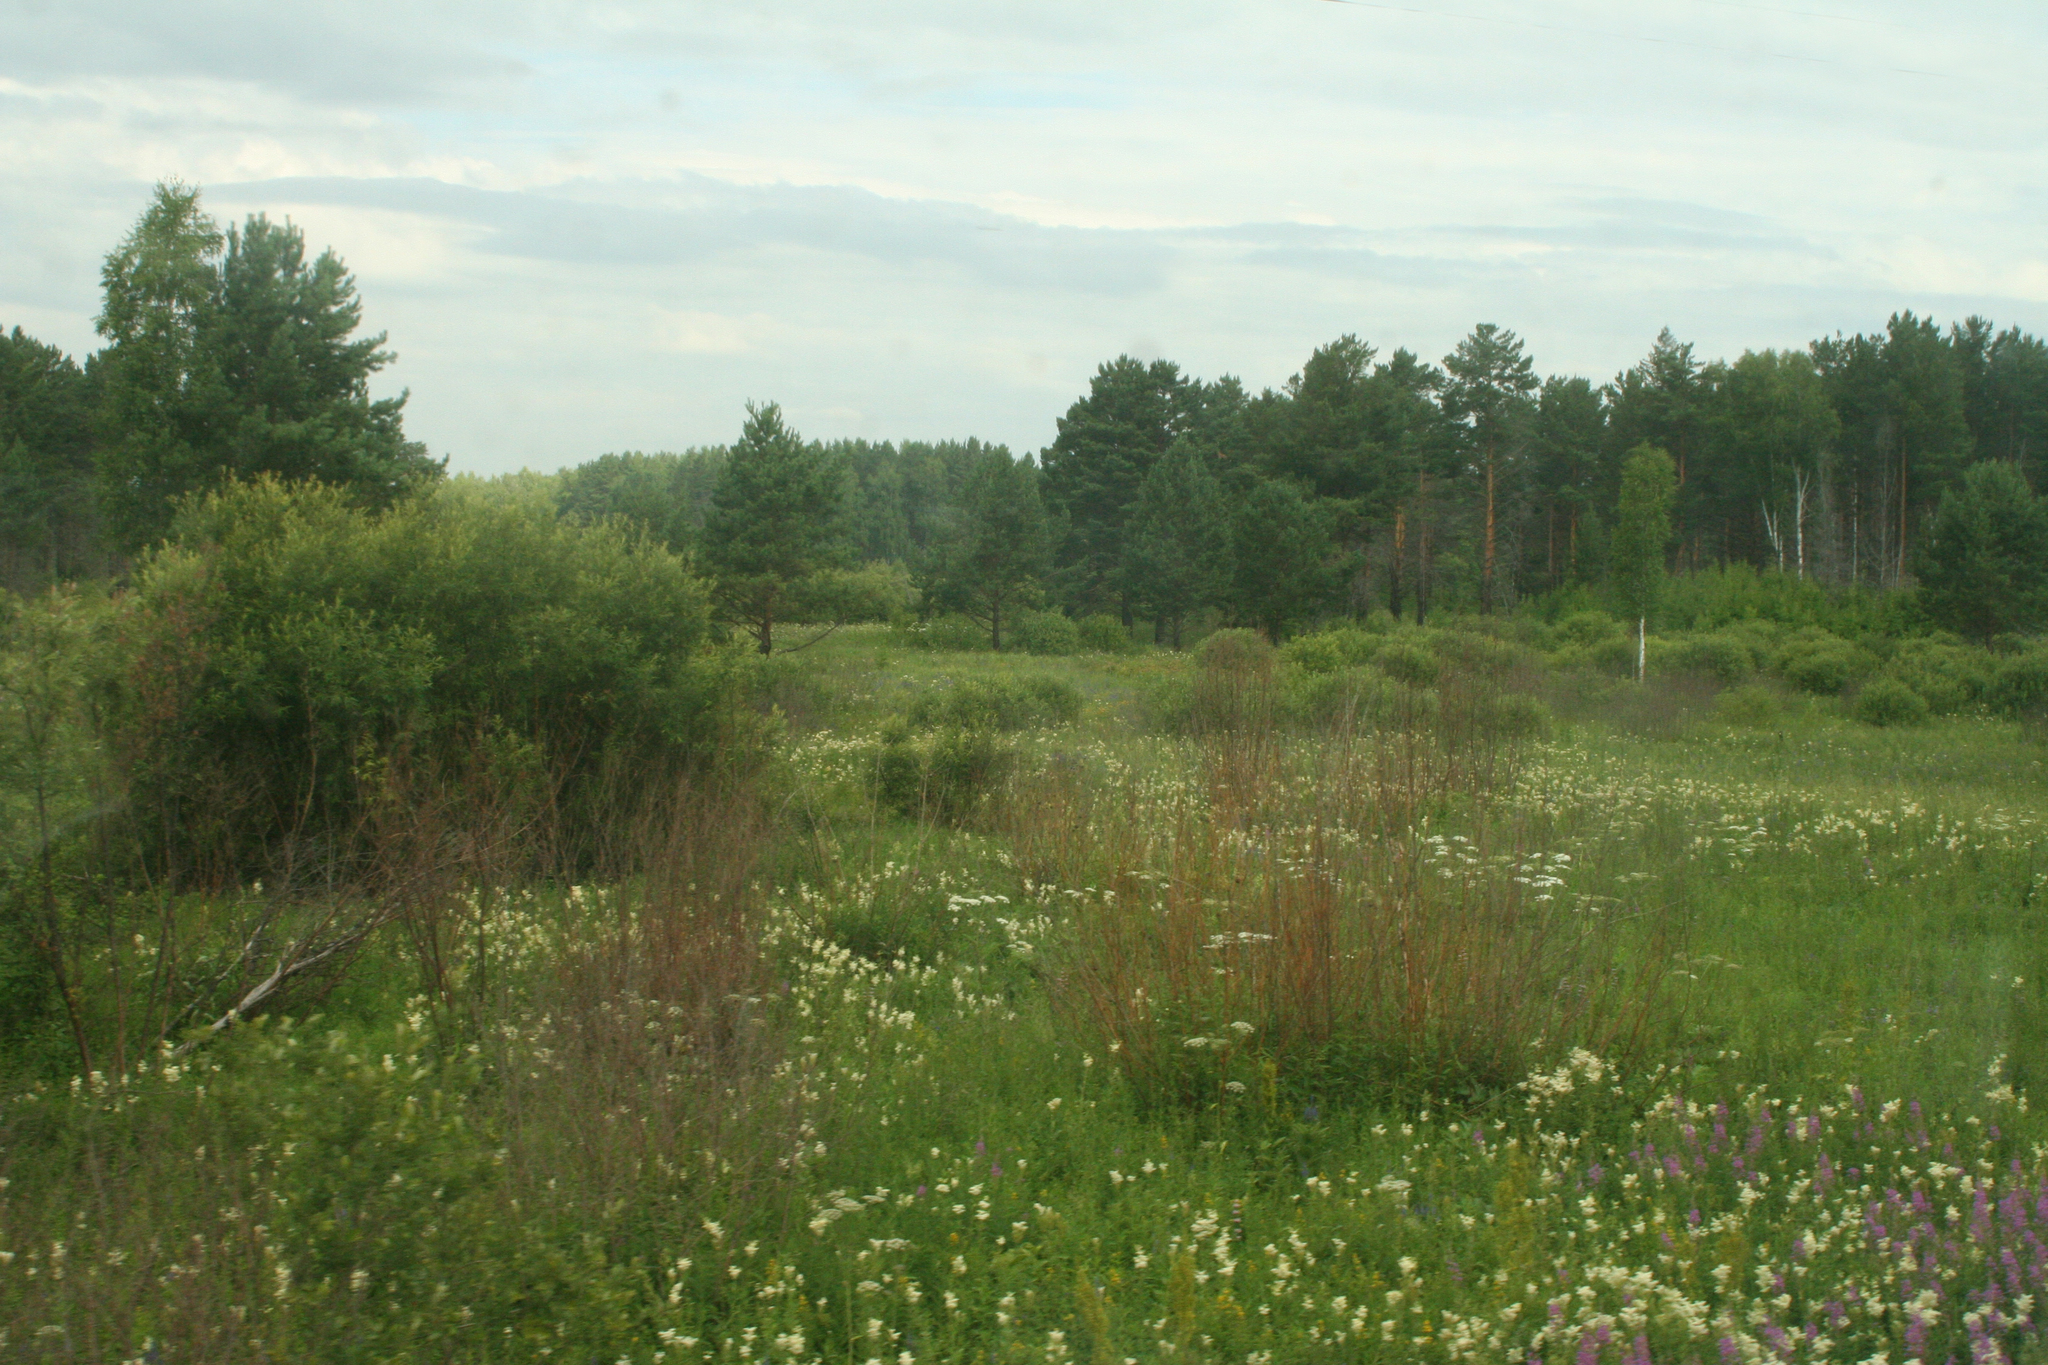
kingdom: Plantae
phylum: Tracheophyta
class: Magnoliopsida
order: Rosales
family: Rosaceae
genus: Filipendula
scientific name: Filipendula ulmaria
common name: Meadowsweet
